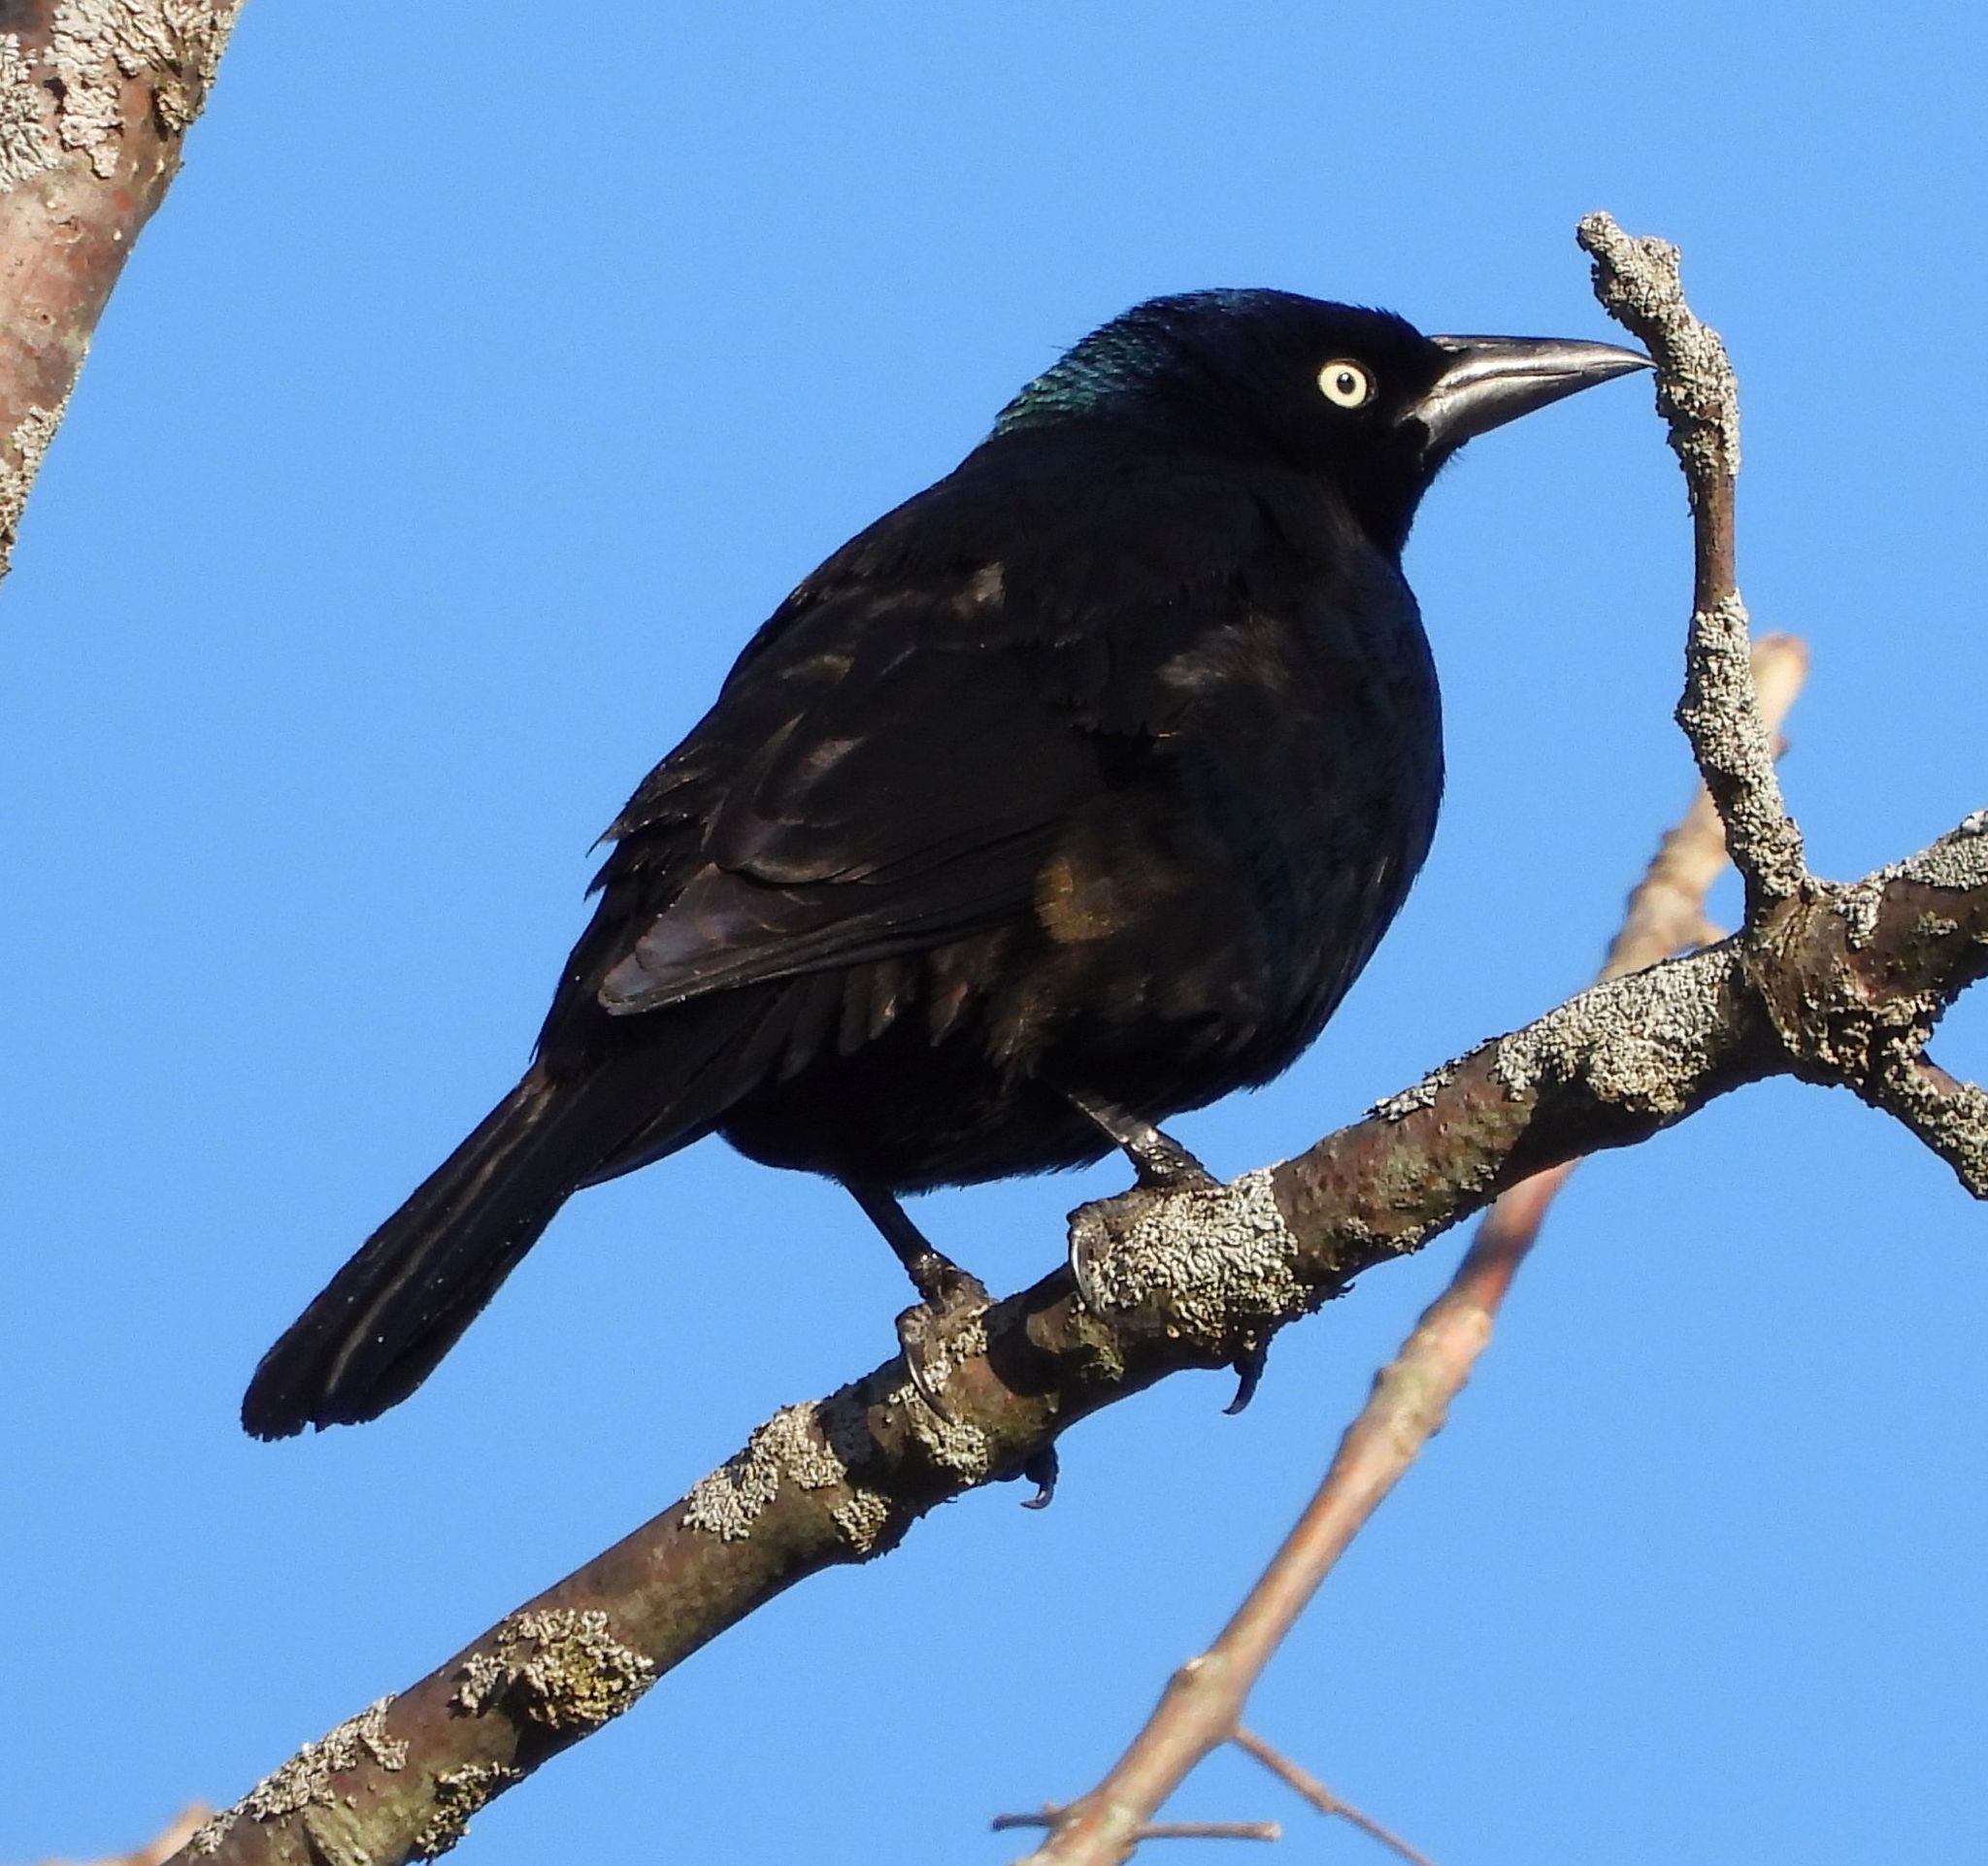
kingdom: Animalia
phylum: Chordata
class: Aves
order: Passeriformes
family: Icteridae
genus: Quiscalus
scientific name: Quiscalus quiscula
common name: Common grackle
